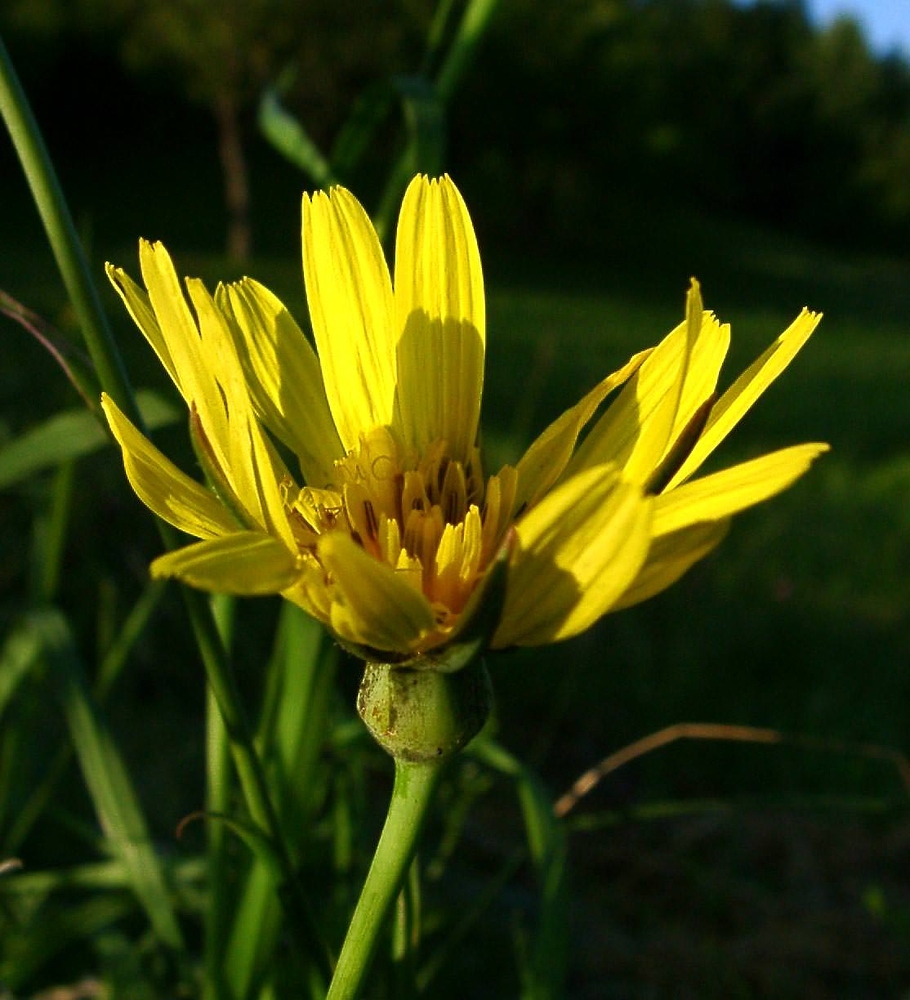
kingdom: Plantae
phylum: Tracheophyta
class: Magnoliopsida
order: Asterales
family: Asteraceae
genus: Tragopogon
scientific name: Tragopogon orientalis
